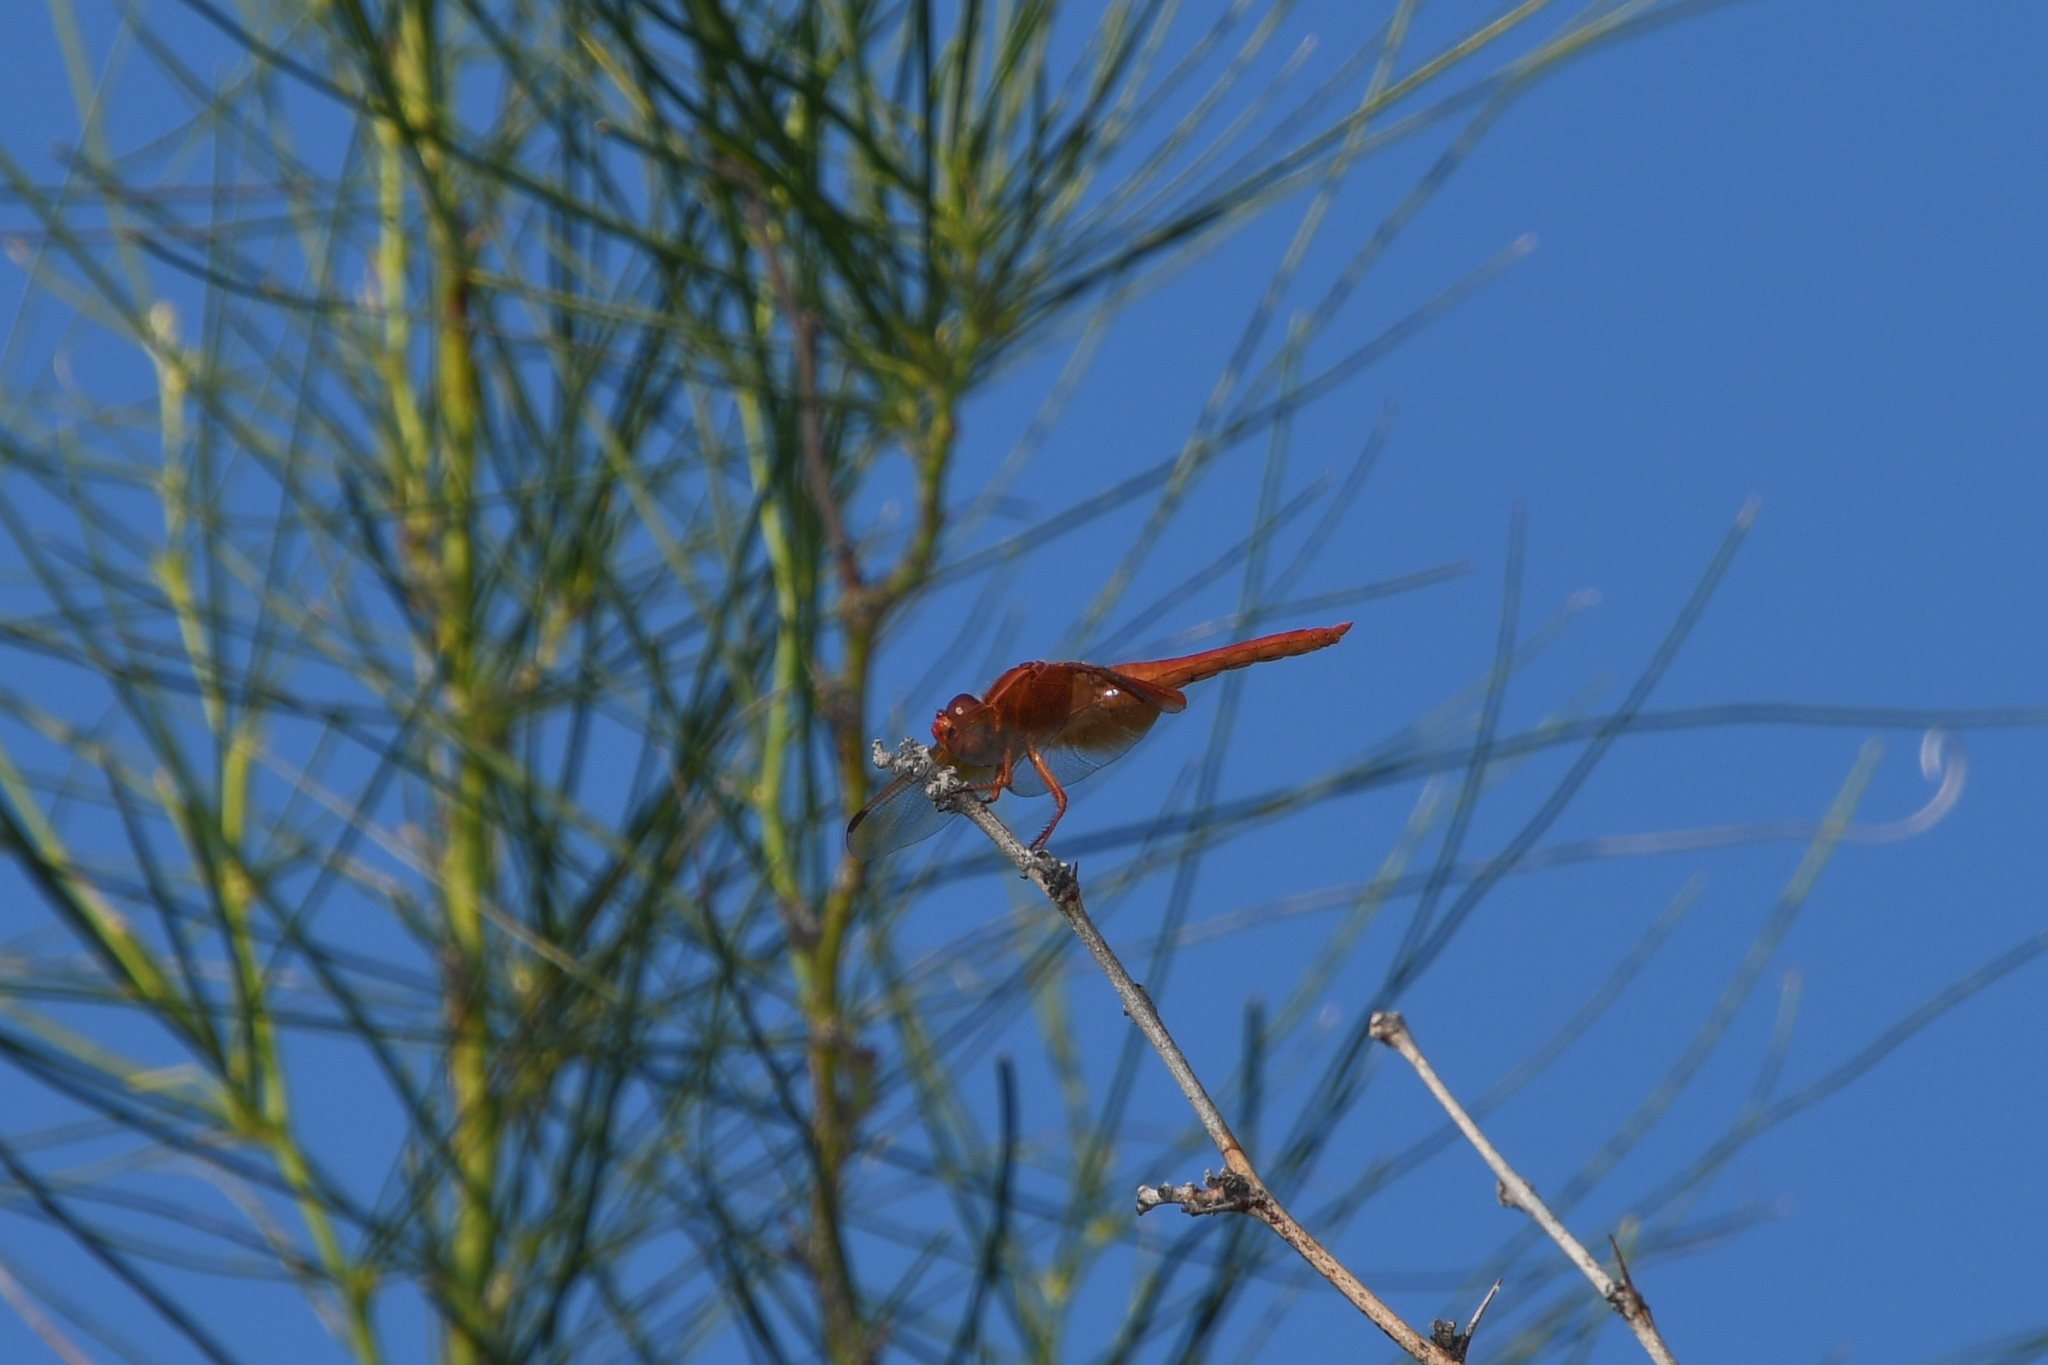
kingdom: Animalia
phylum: Arthropoda
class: Insecta
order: Odonata
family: Libellulidae
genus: Libellula
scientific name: Libellula saturata
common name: Flame skimmer
